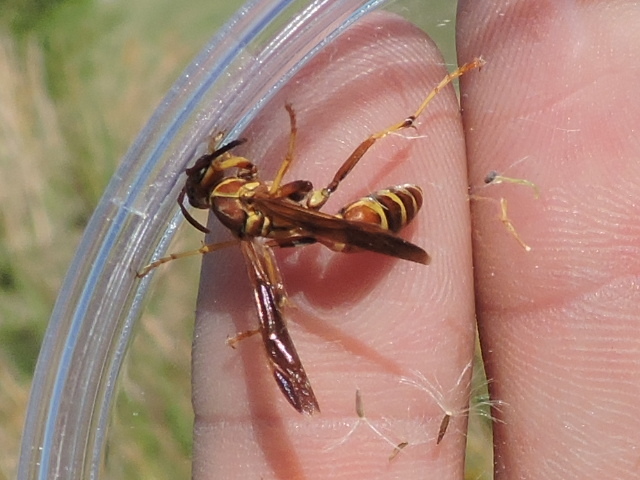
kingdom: Animalia
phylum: Arthropoda
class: Insecta
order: Hymenoptera
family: Eumenidae
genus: Polistes
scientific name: Polistes dorsalis
